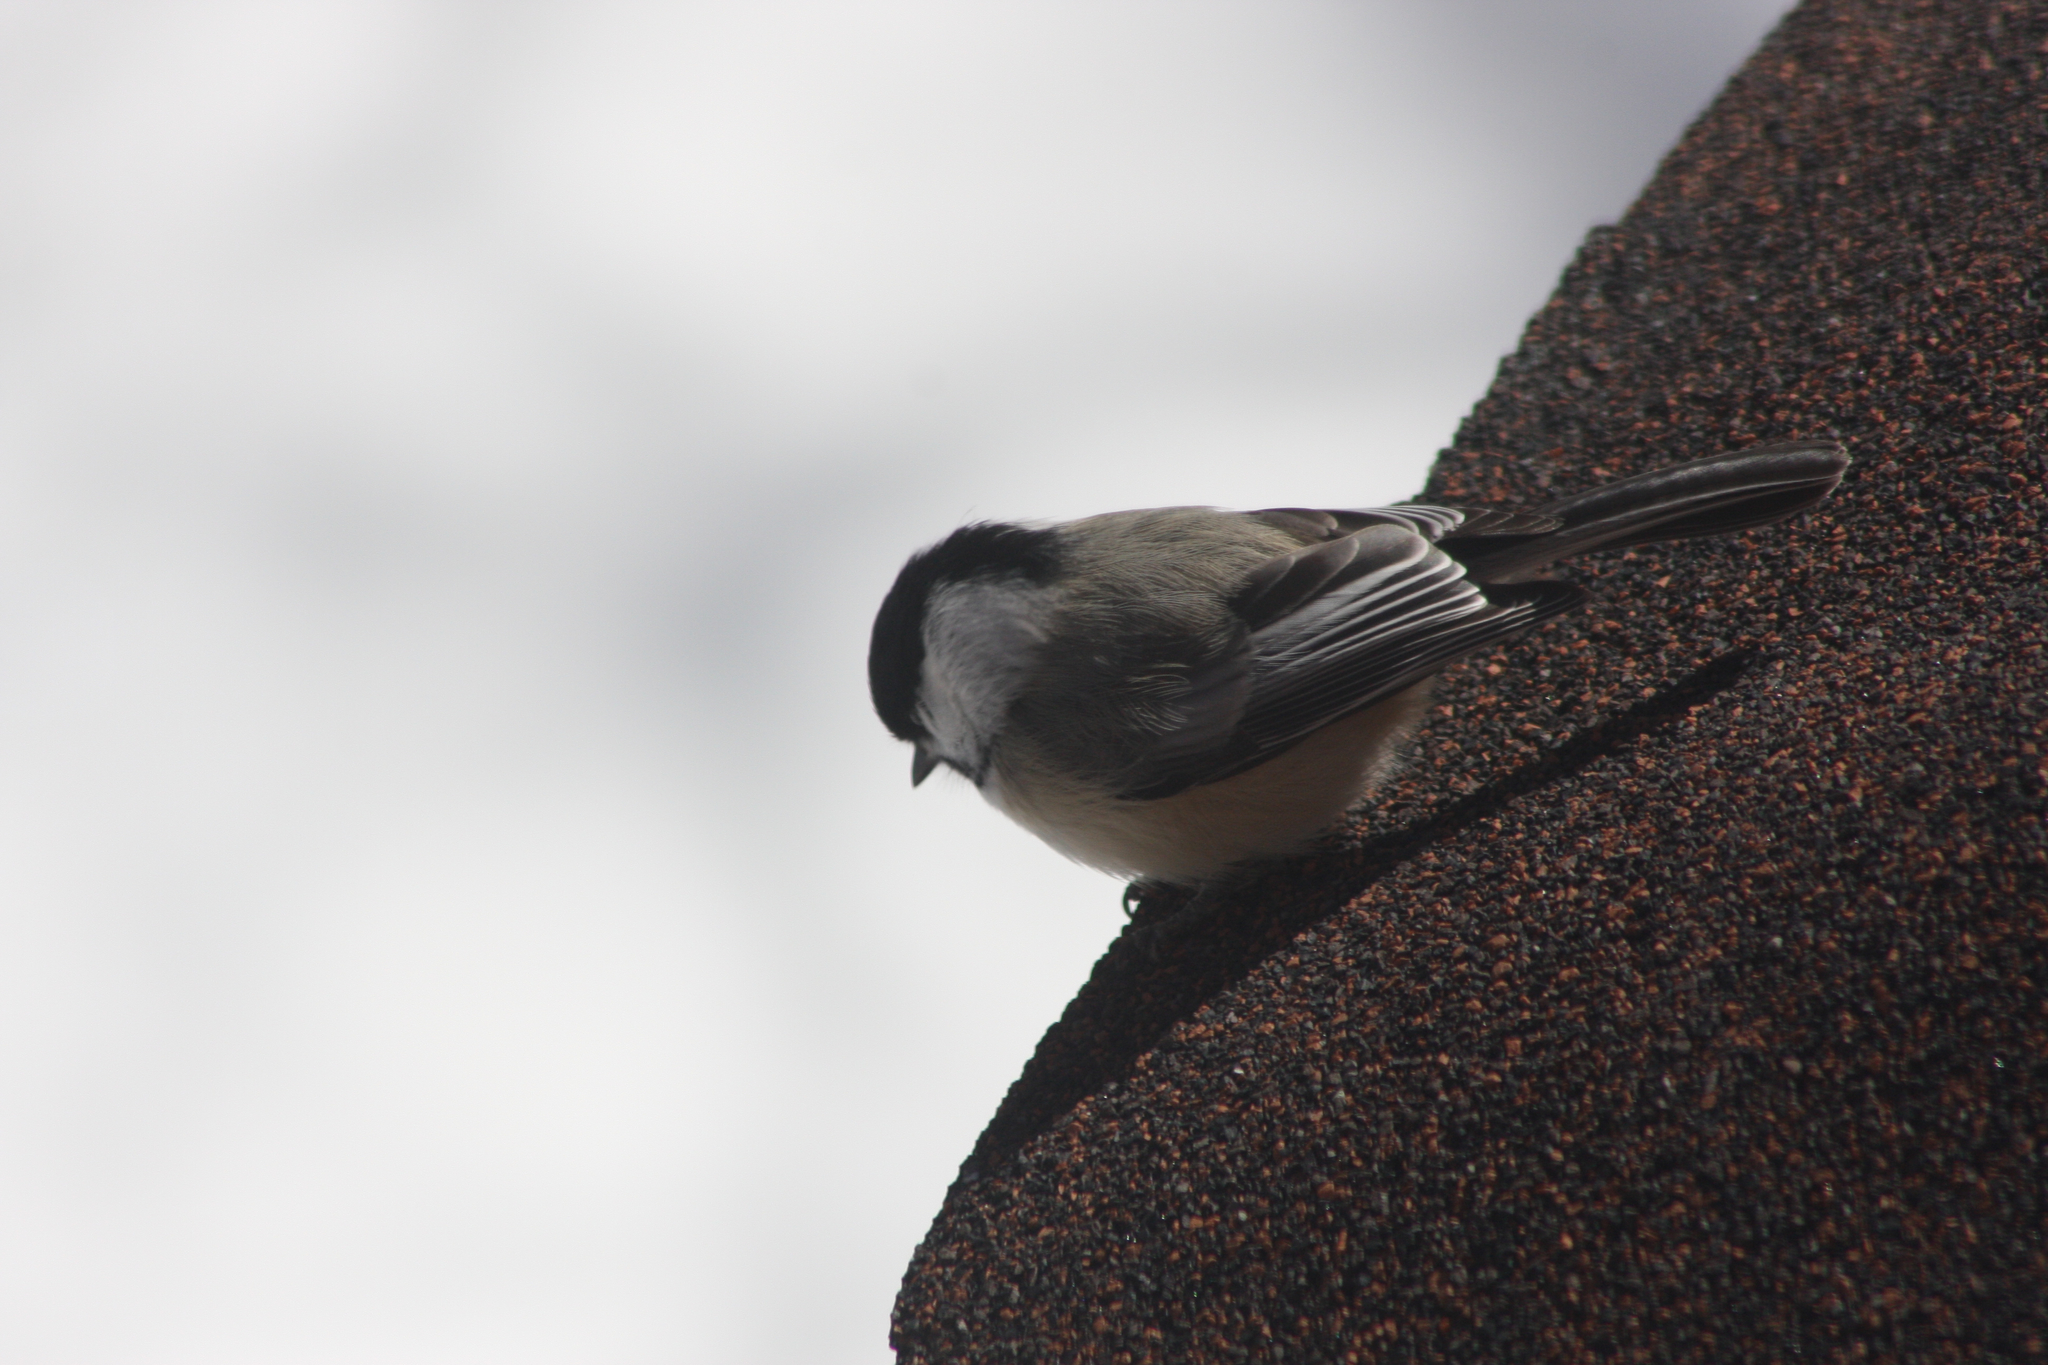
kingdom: Animalia
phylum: Chordata
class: Aves
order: Passeriformes
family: Paridae
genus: Poecile
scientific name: Poecile atricapillus
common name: Black-capped chickadee
